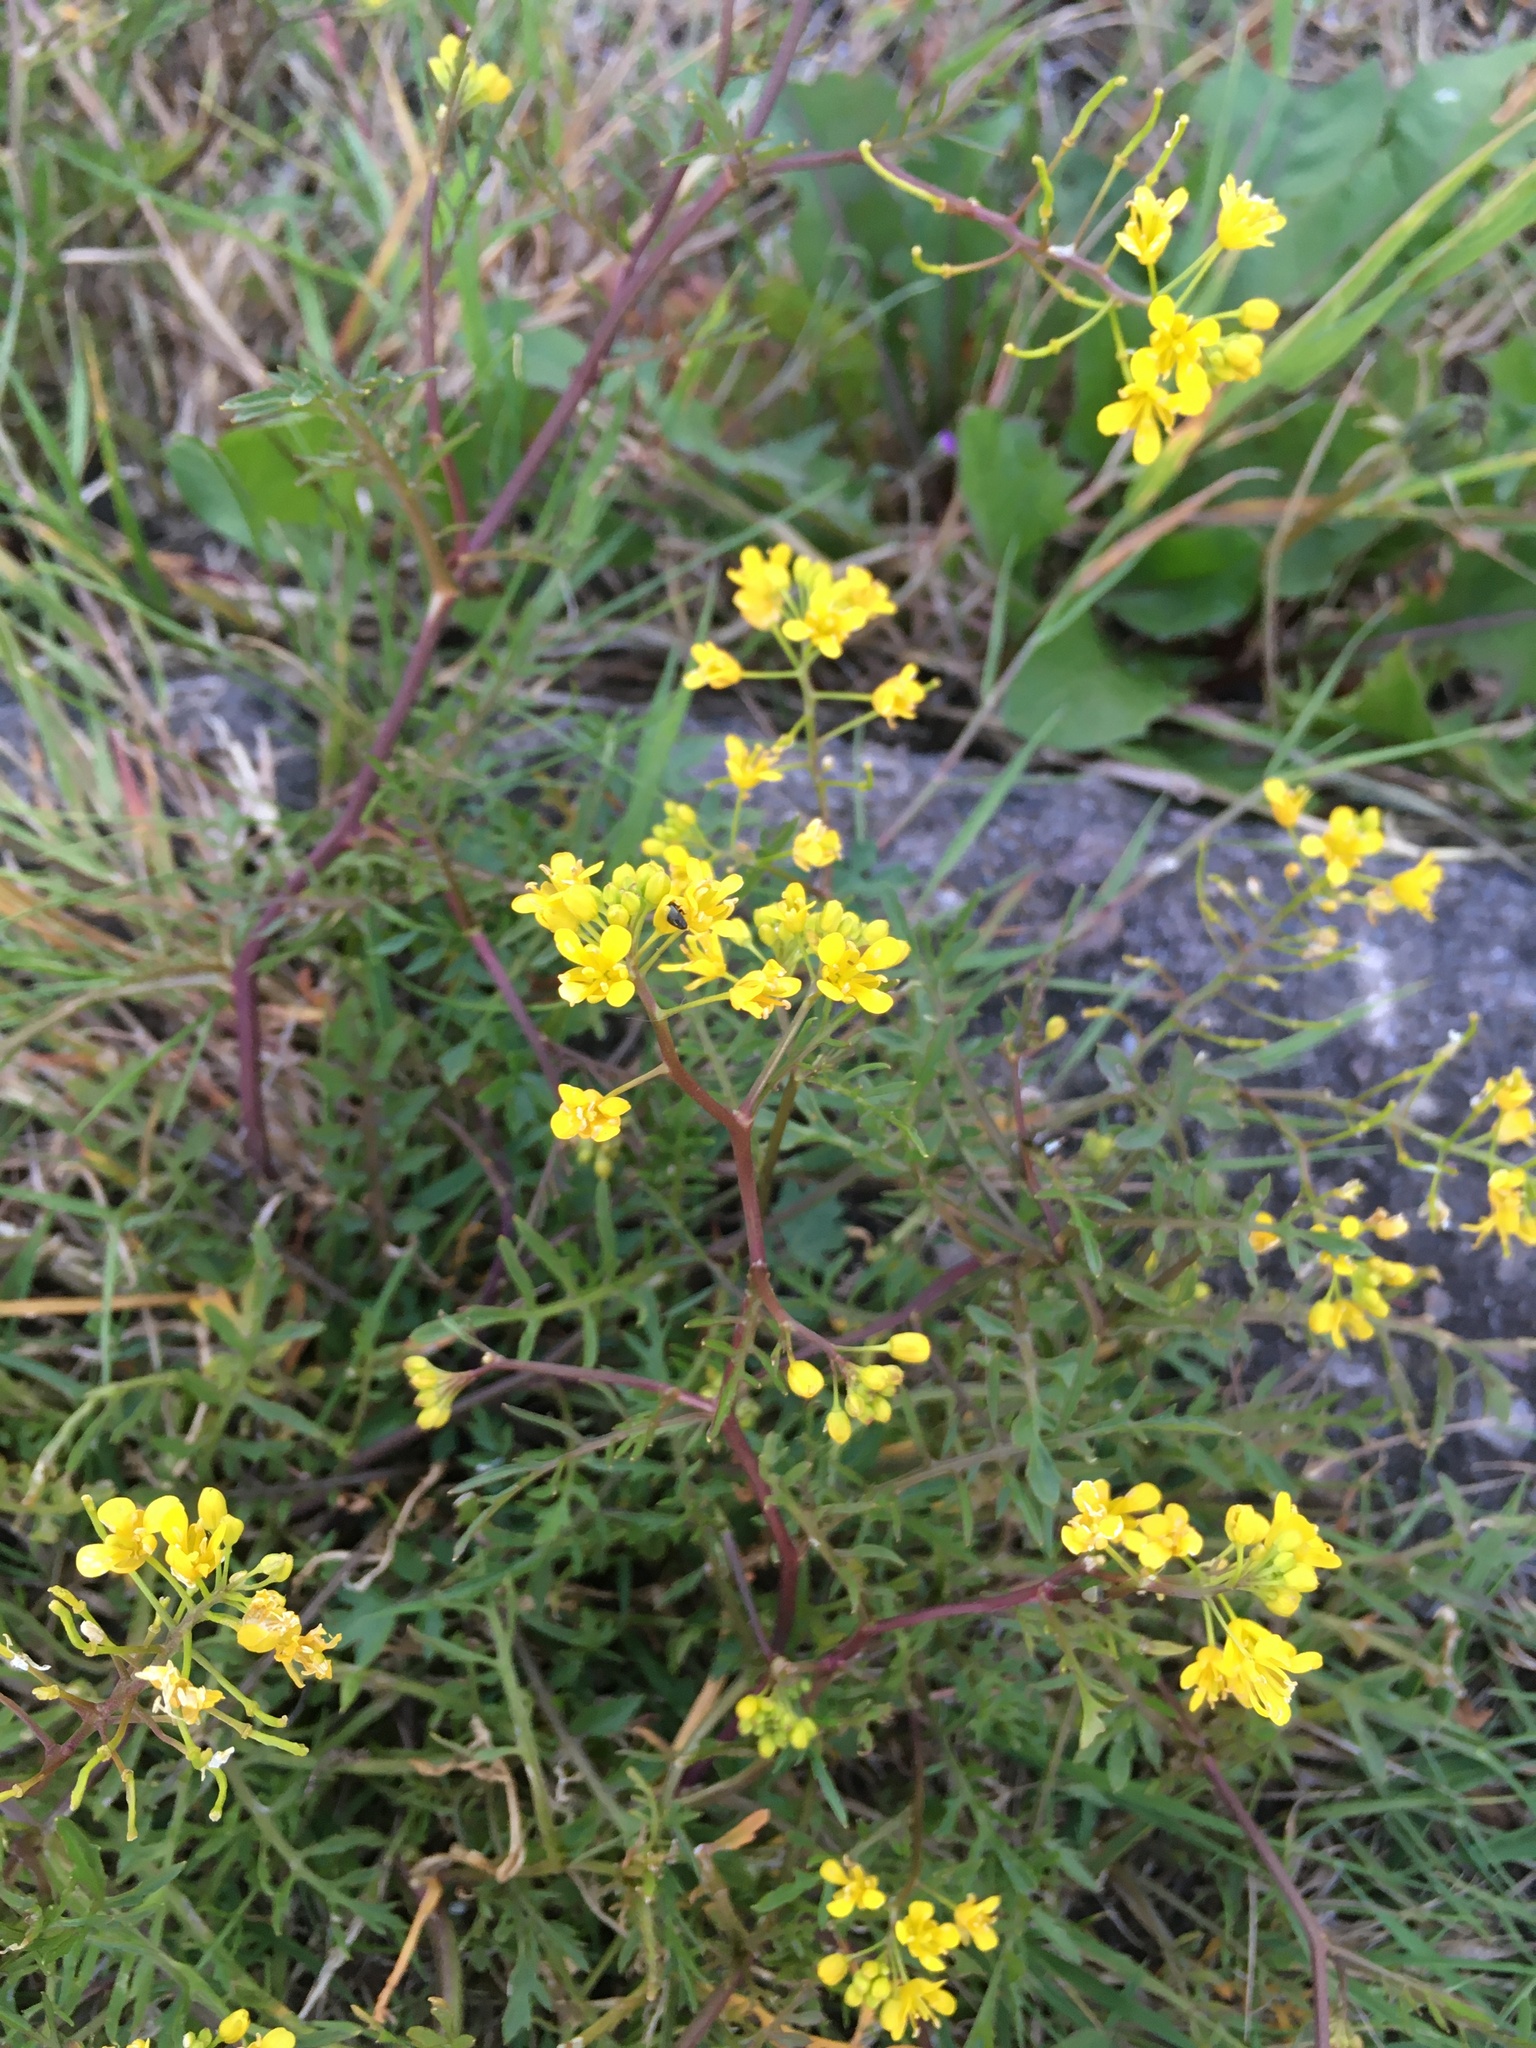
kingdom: Plantae
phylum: Tracheophyta
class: Magnoliopsida
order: Brassicales
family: Brassicaceae
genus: Rorippa
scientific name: Rorippa sylvestris
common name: Creeping yellowcress
